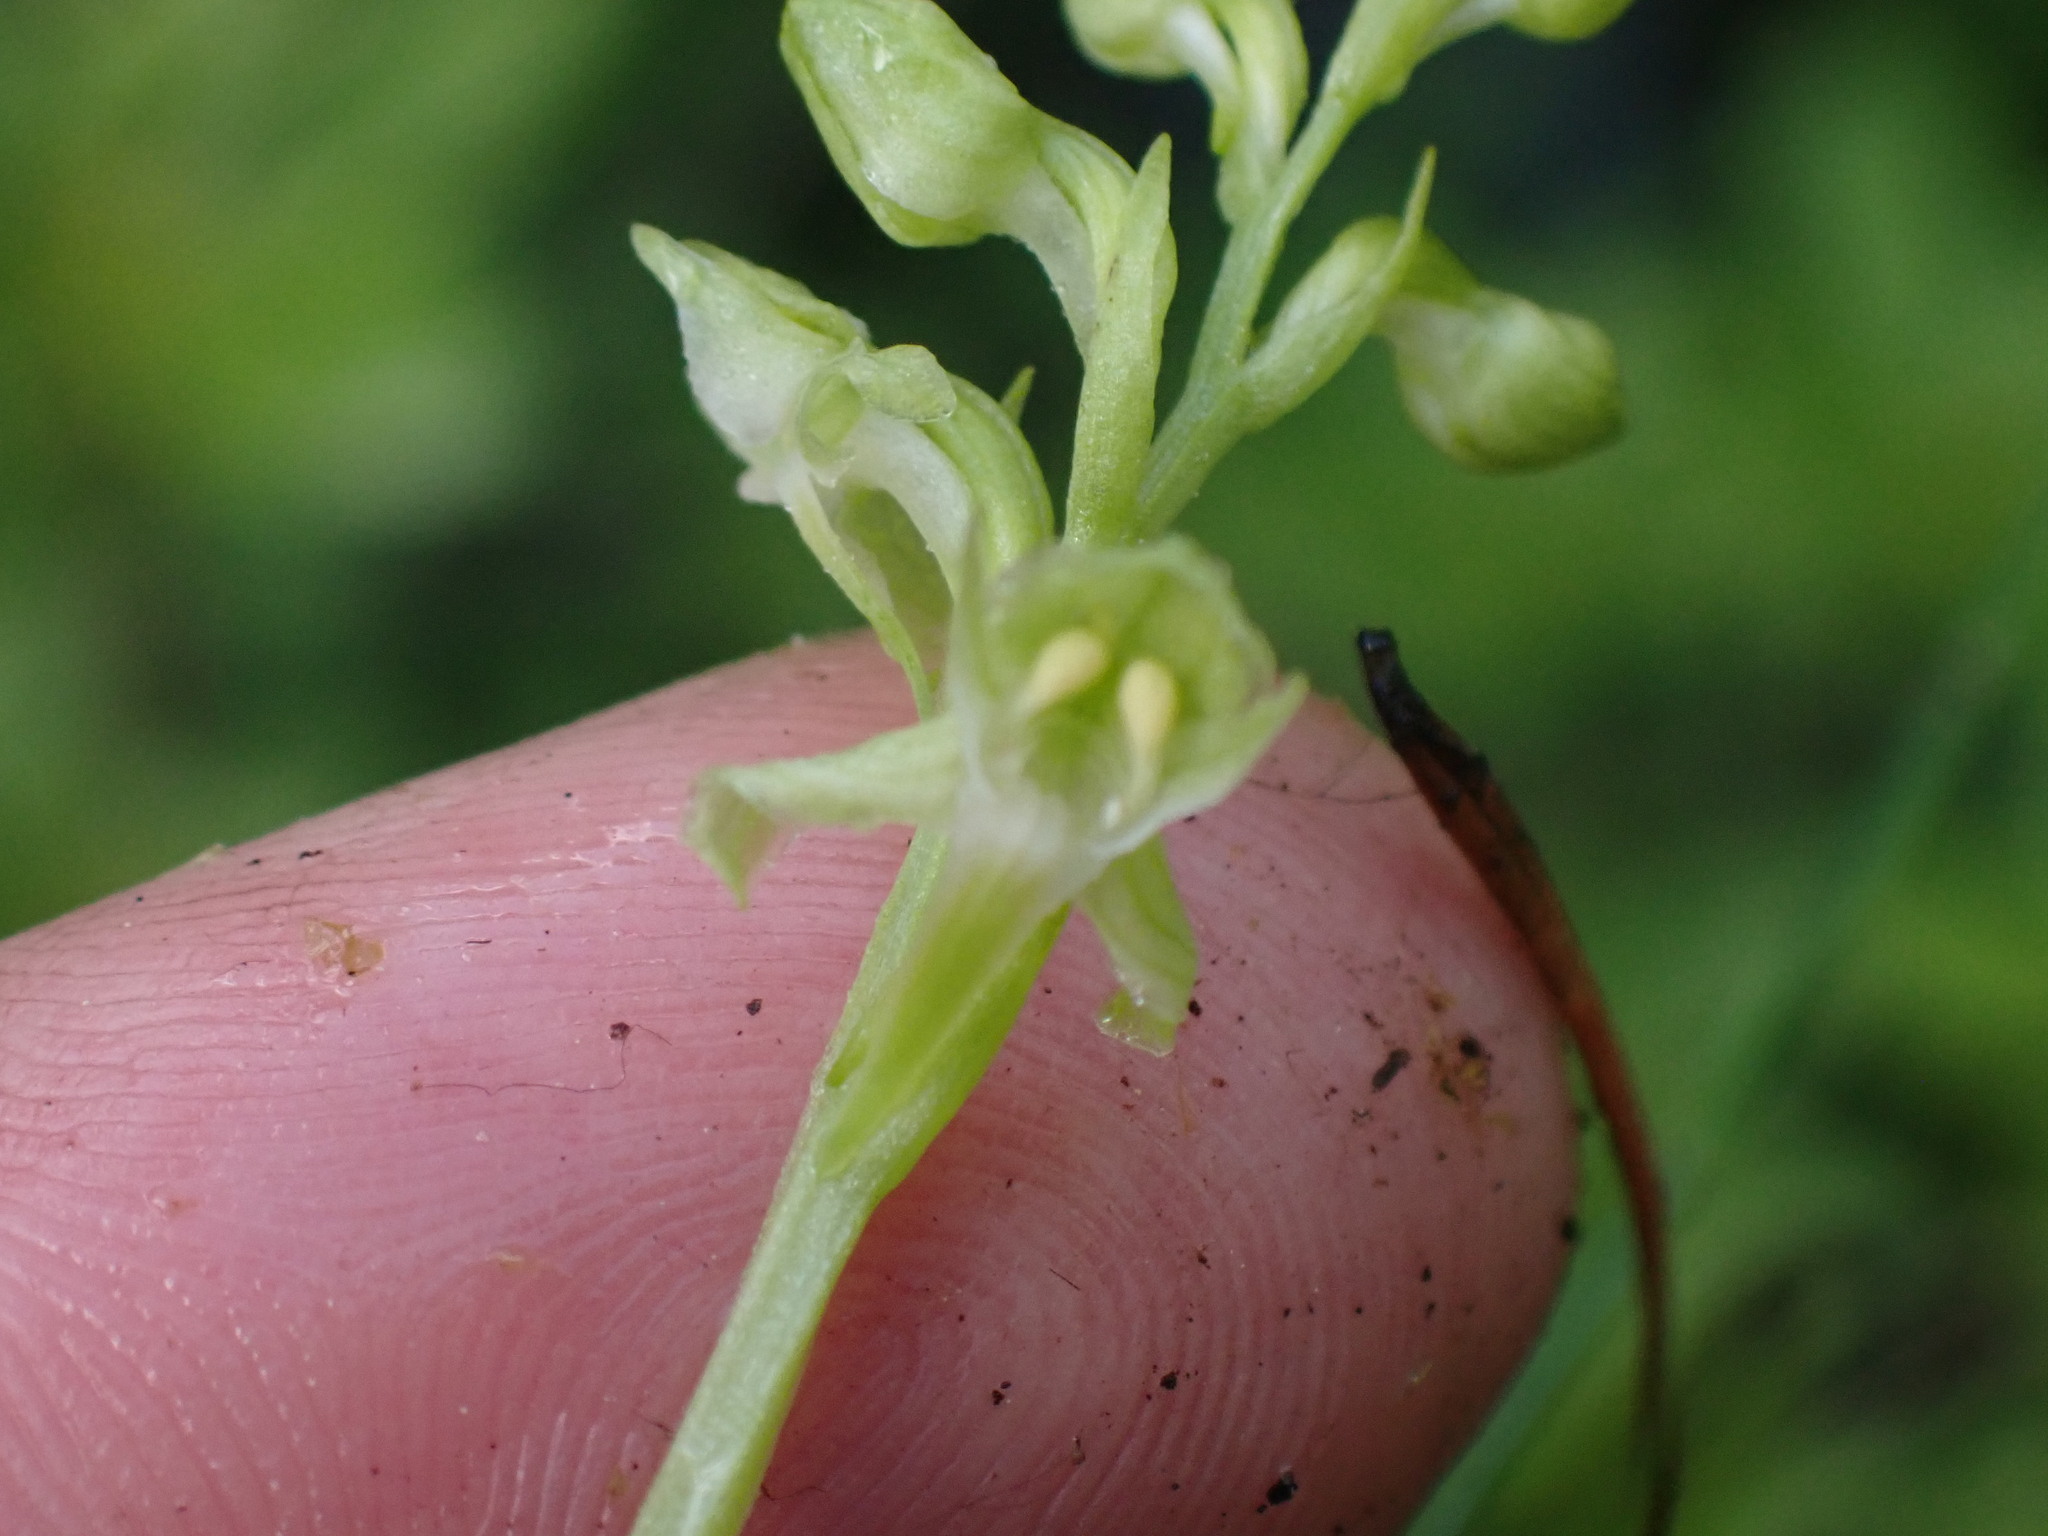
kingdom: Plantae
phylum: Tracheophyta
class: Liliopsida
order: Asparagales
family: Orchidaceae
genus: Platanthera
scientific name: Platanthera obtusata
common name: Blunt bog orchid
